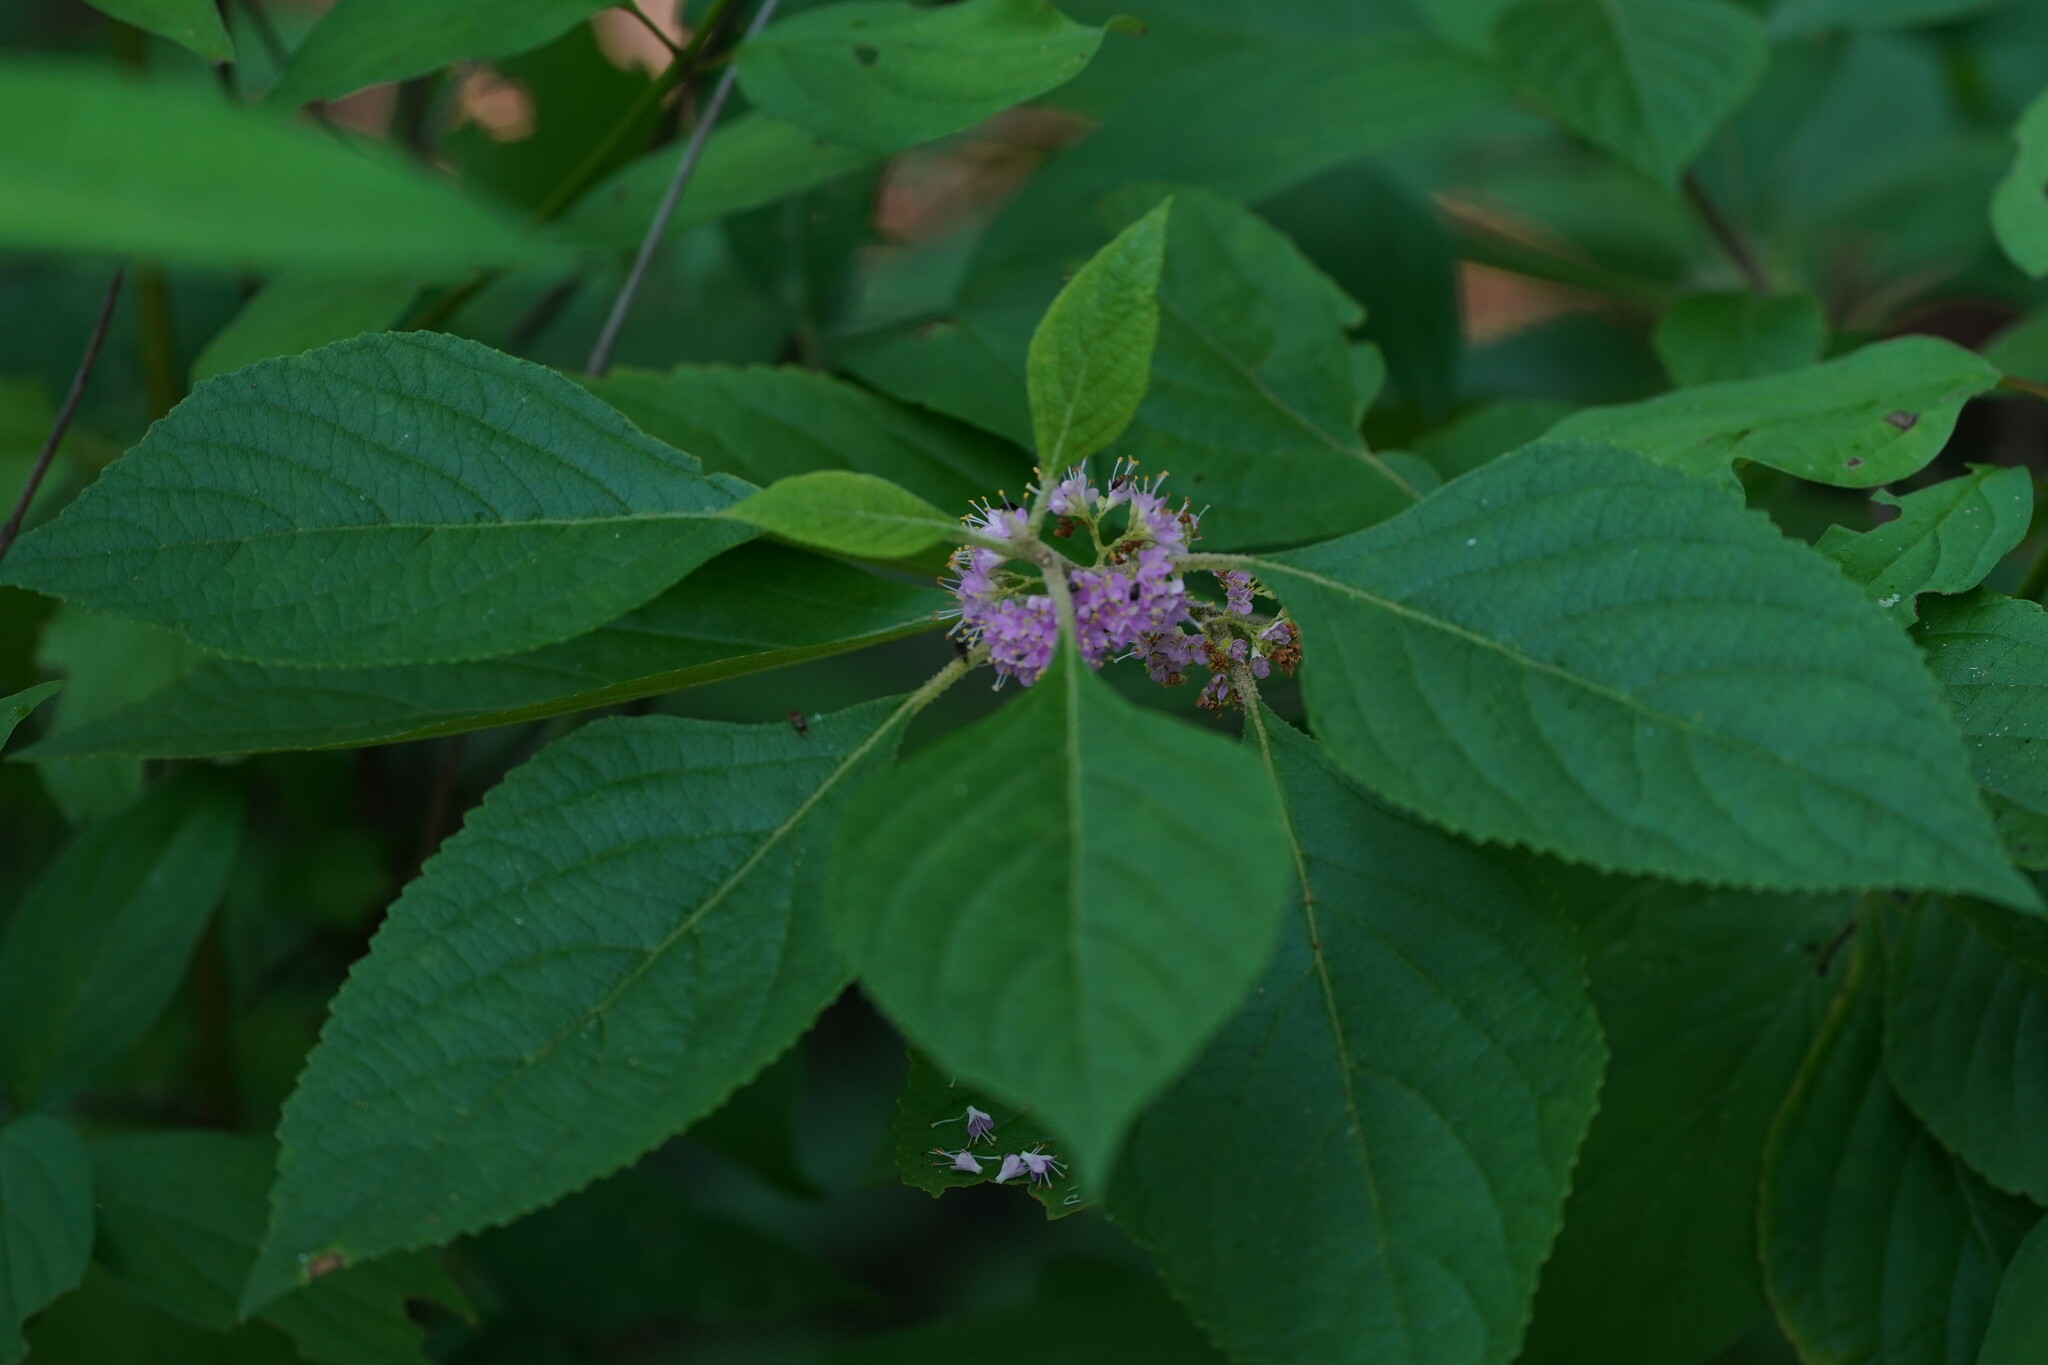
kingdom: Plantae
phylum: Tracheophyta
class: Magnoliopsida
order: Lamiales
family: Lamiaceae
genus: Callicarpa
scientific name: Callicarpa americana
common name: American beautyberry
